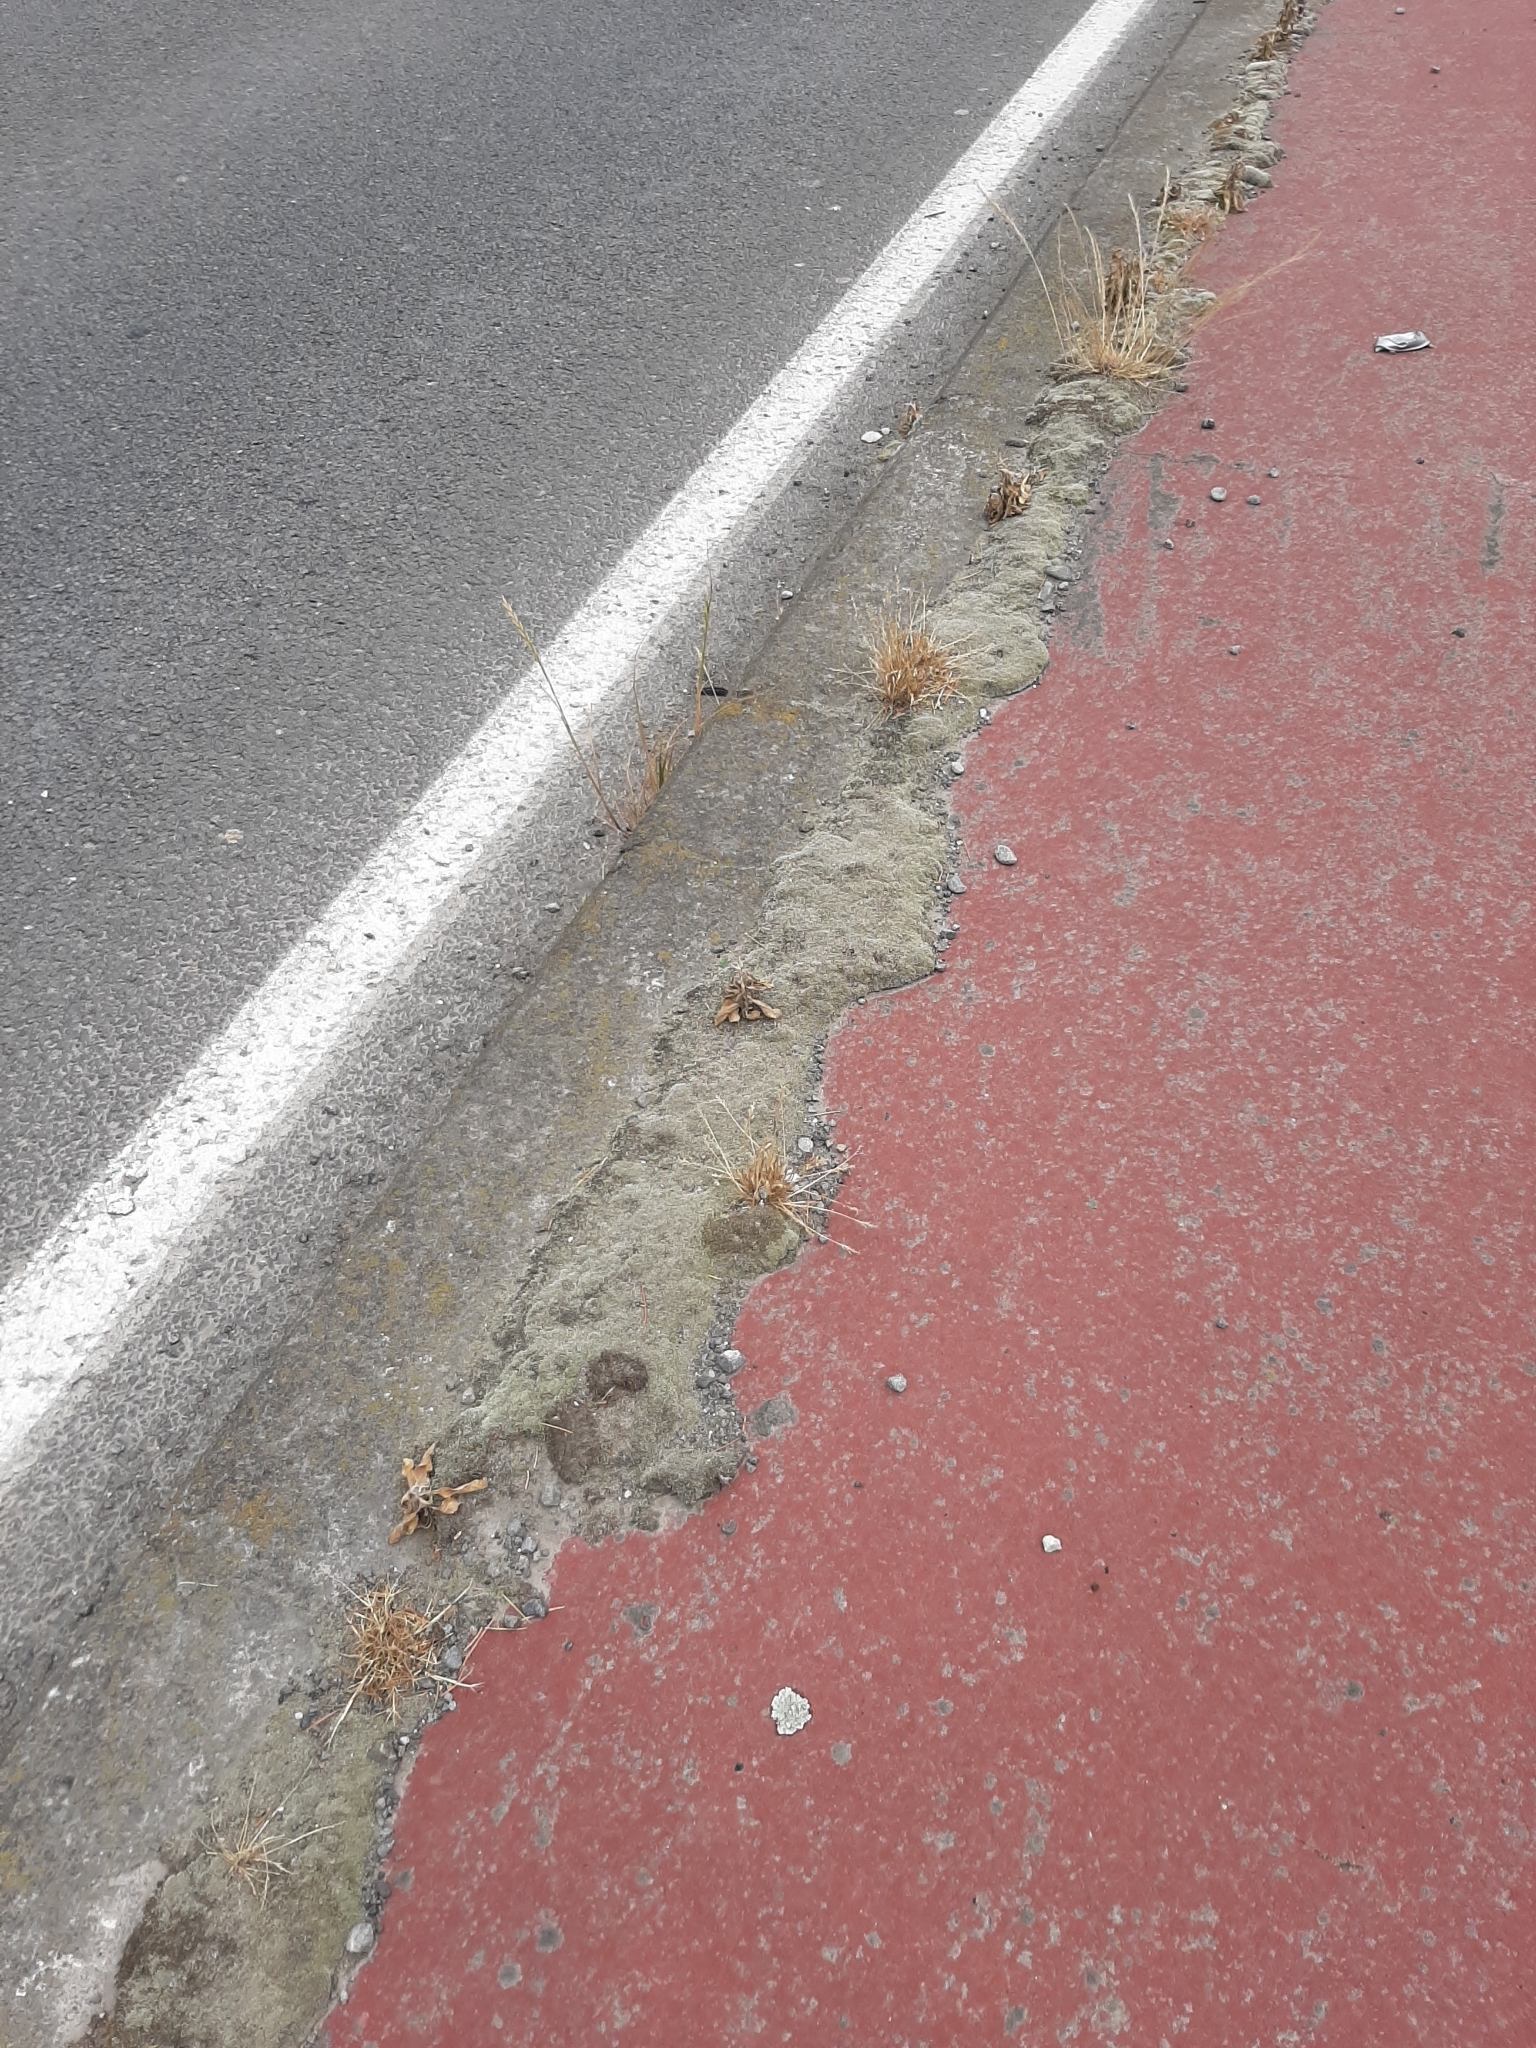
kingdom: Plantae
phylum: Bryophyta
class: Bryopsida
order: Bryales
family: Bryaceae
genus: Bryum
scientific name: Bryum argenteum
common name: Silver-moss
